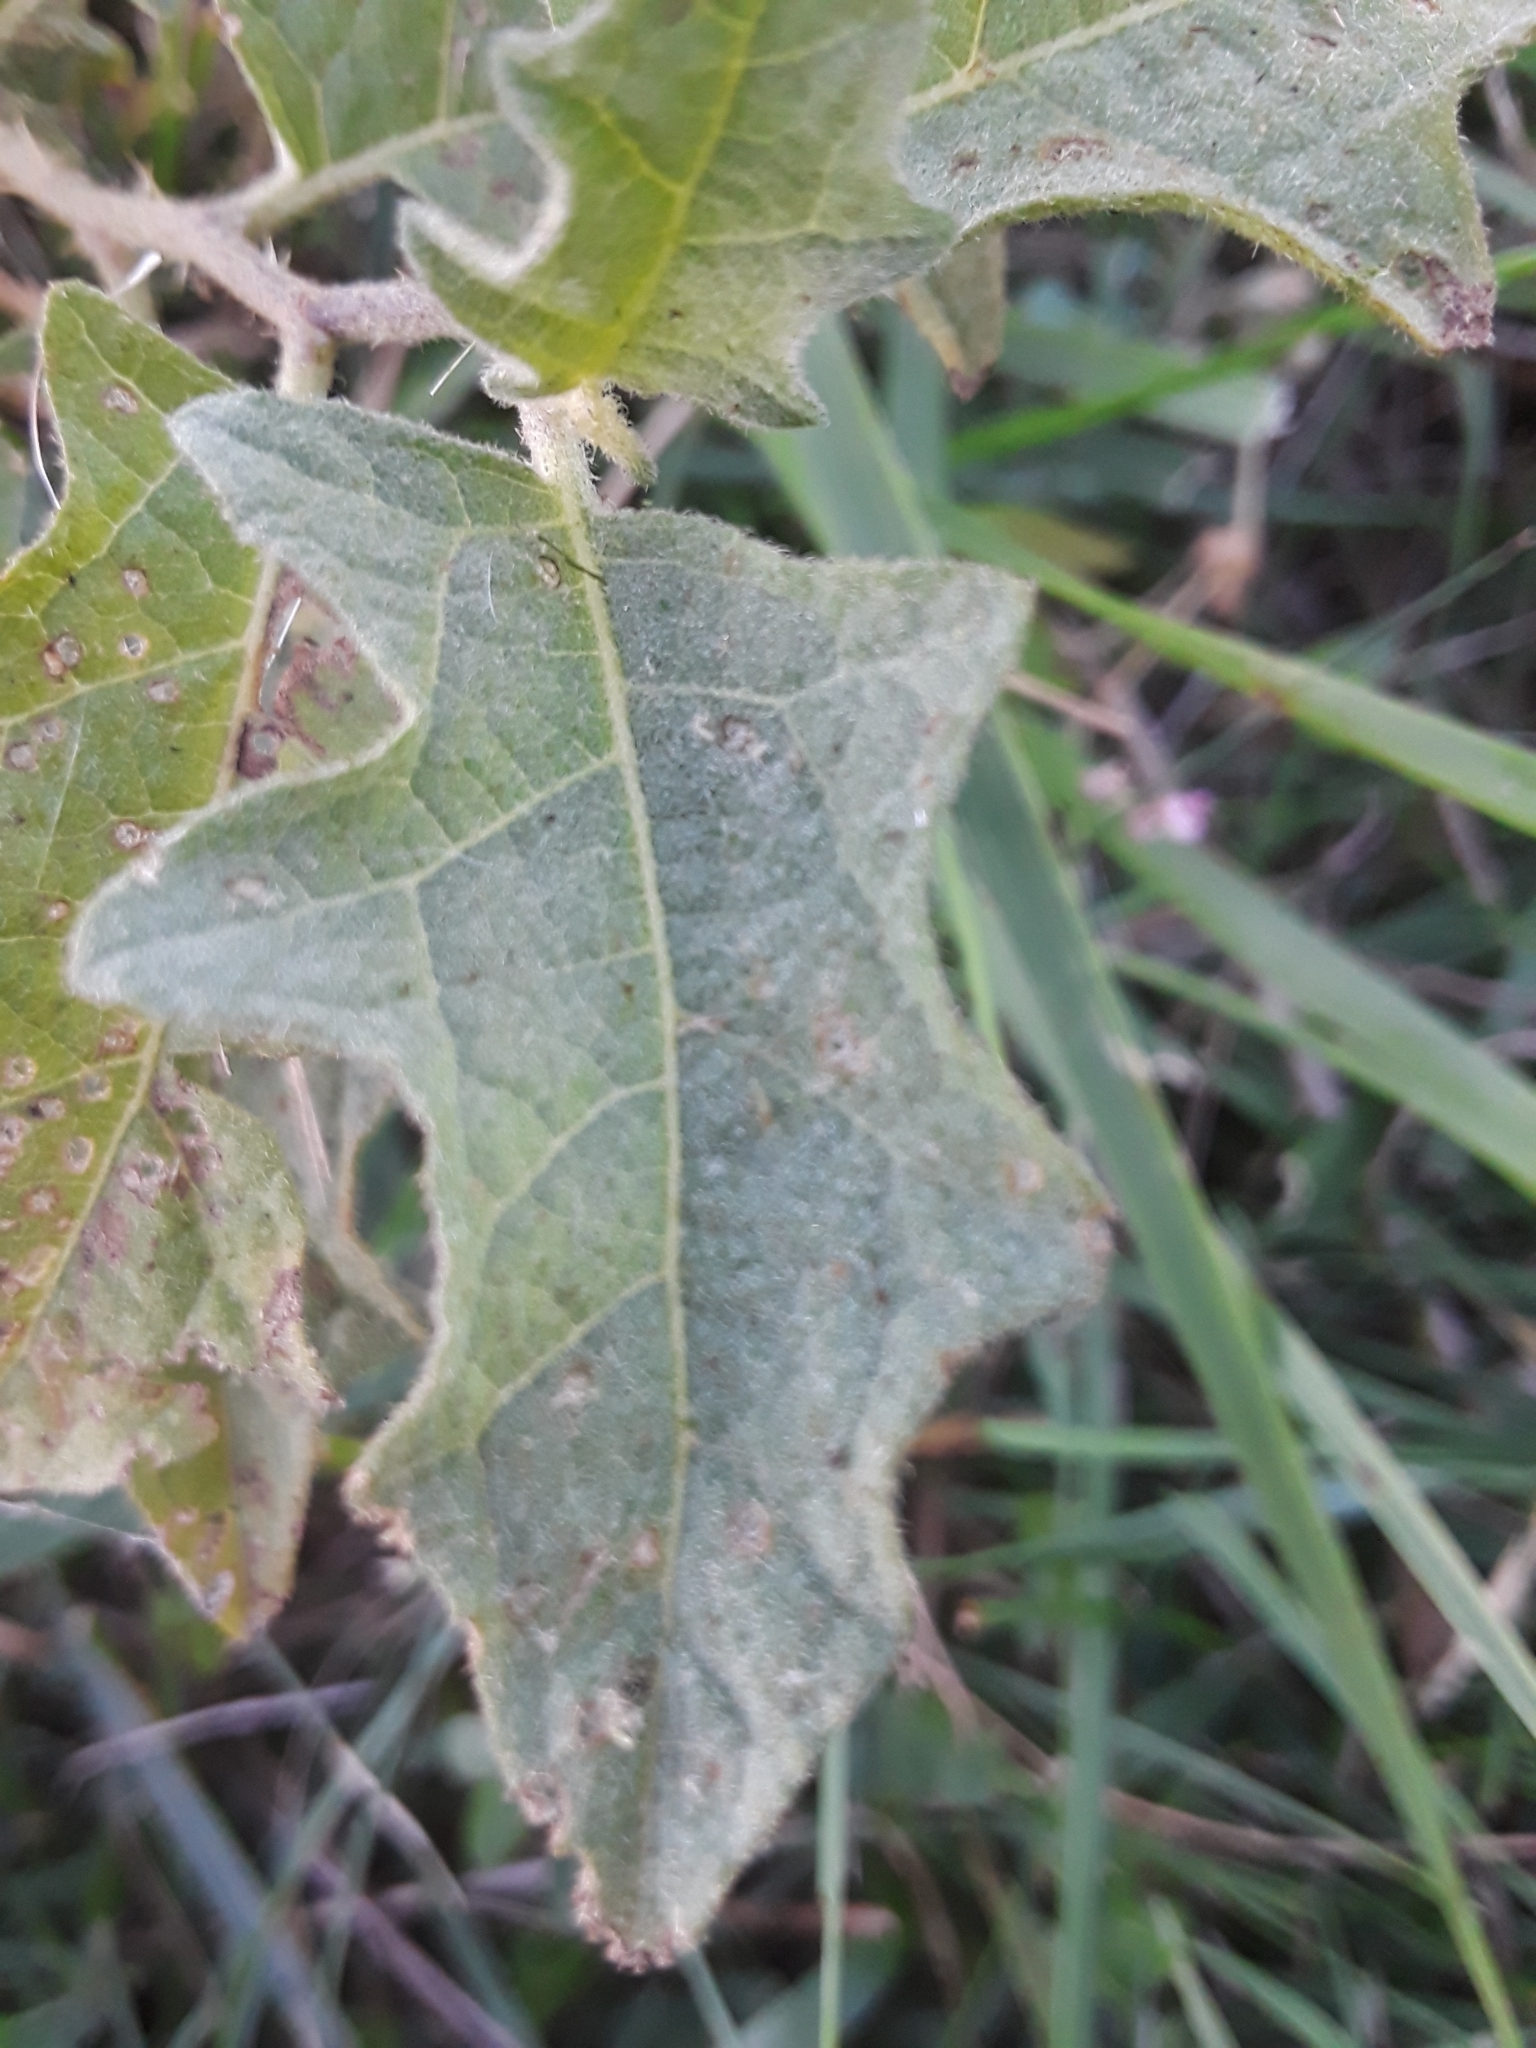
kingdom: Plantae
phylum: Tracheophyta
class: Magnoliopsida
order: Solanales
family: Solanaceae
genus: Solanum
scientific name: Solanum carolinense
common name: Horse-nettle
